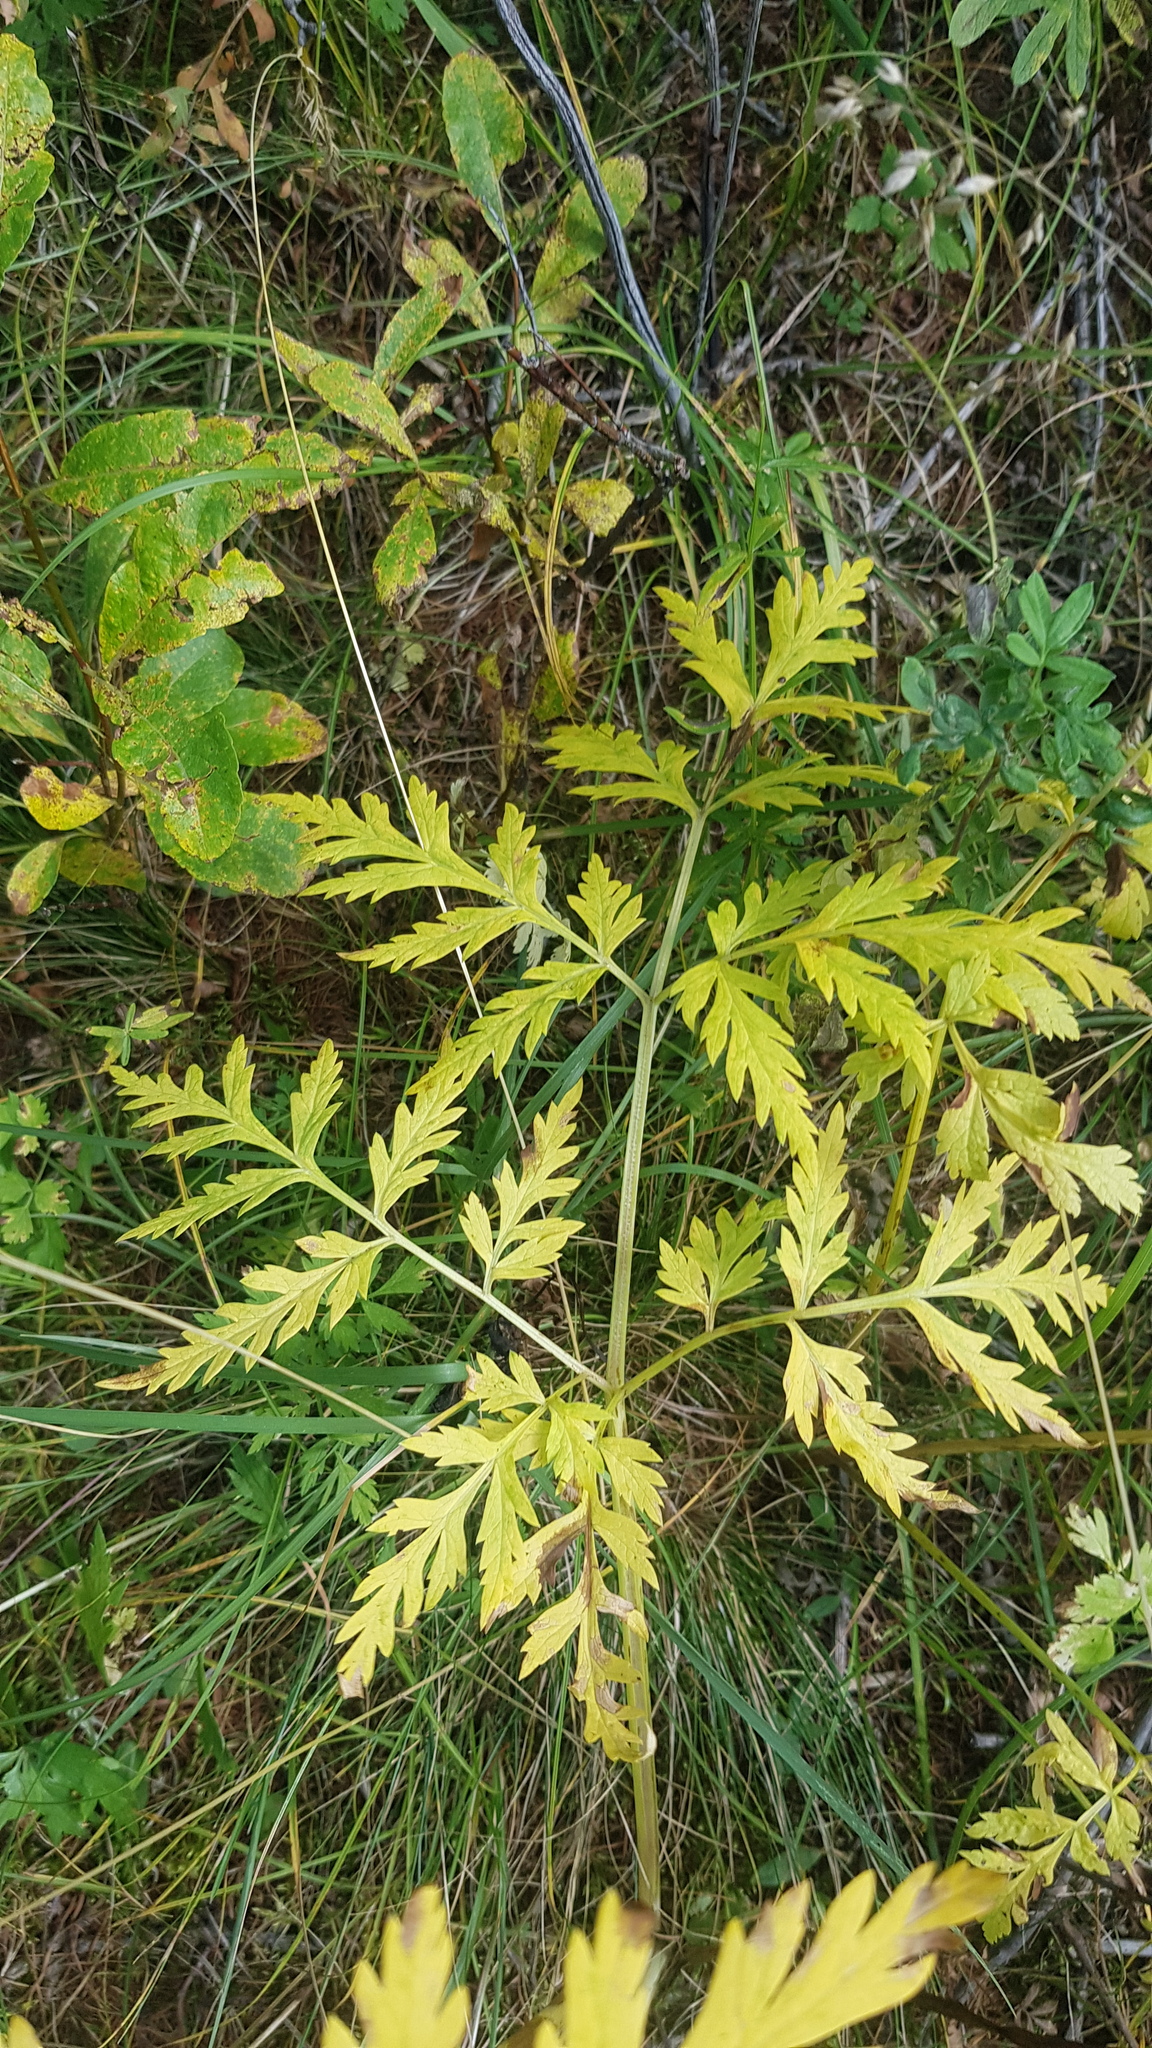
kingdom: Plantae
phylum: Tracheophyta
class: Magnoliopsida
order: Apiales
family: Apiaceae
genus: Pleurospermum
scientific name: Pleurospermum uralense
